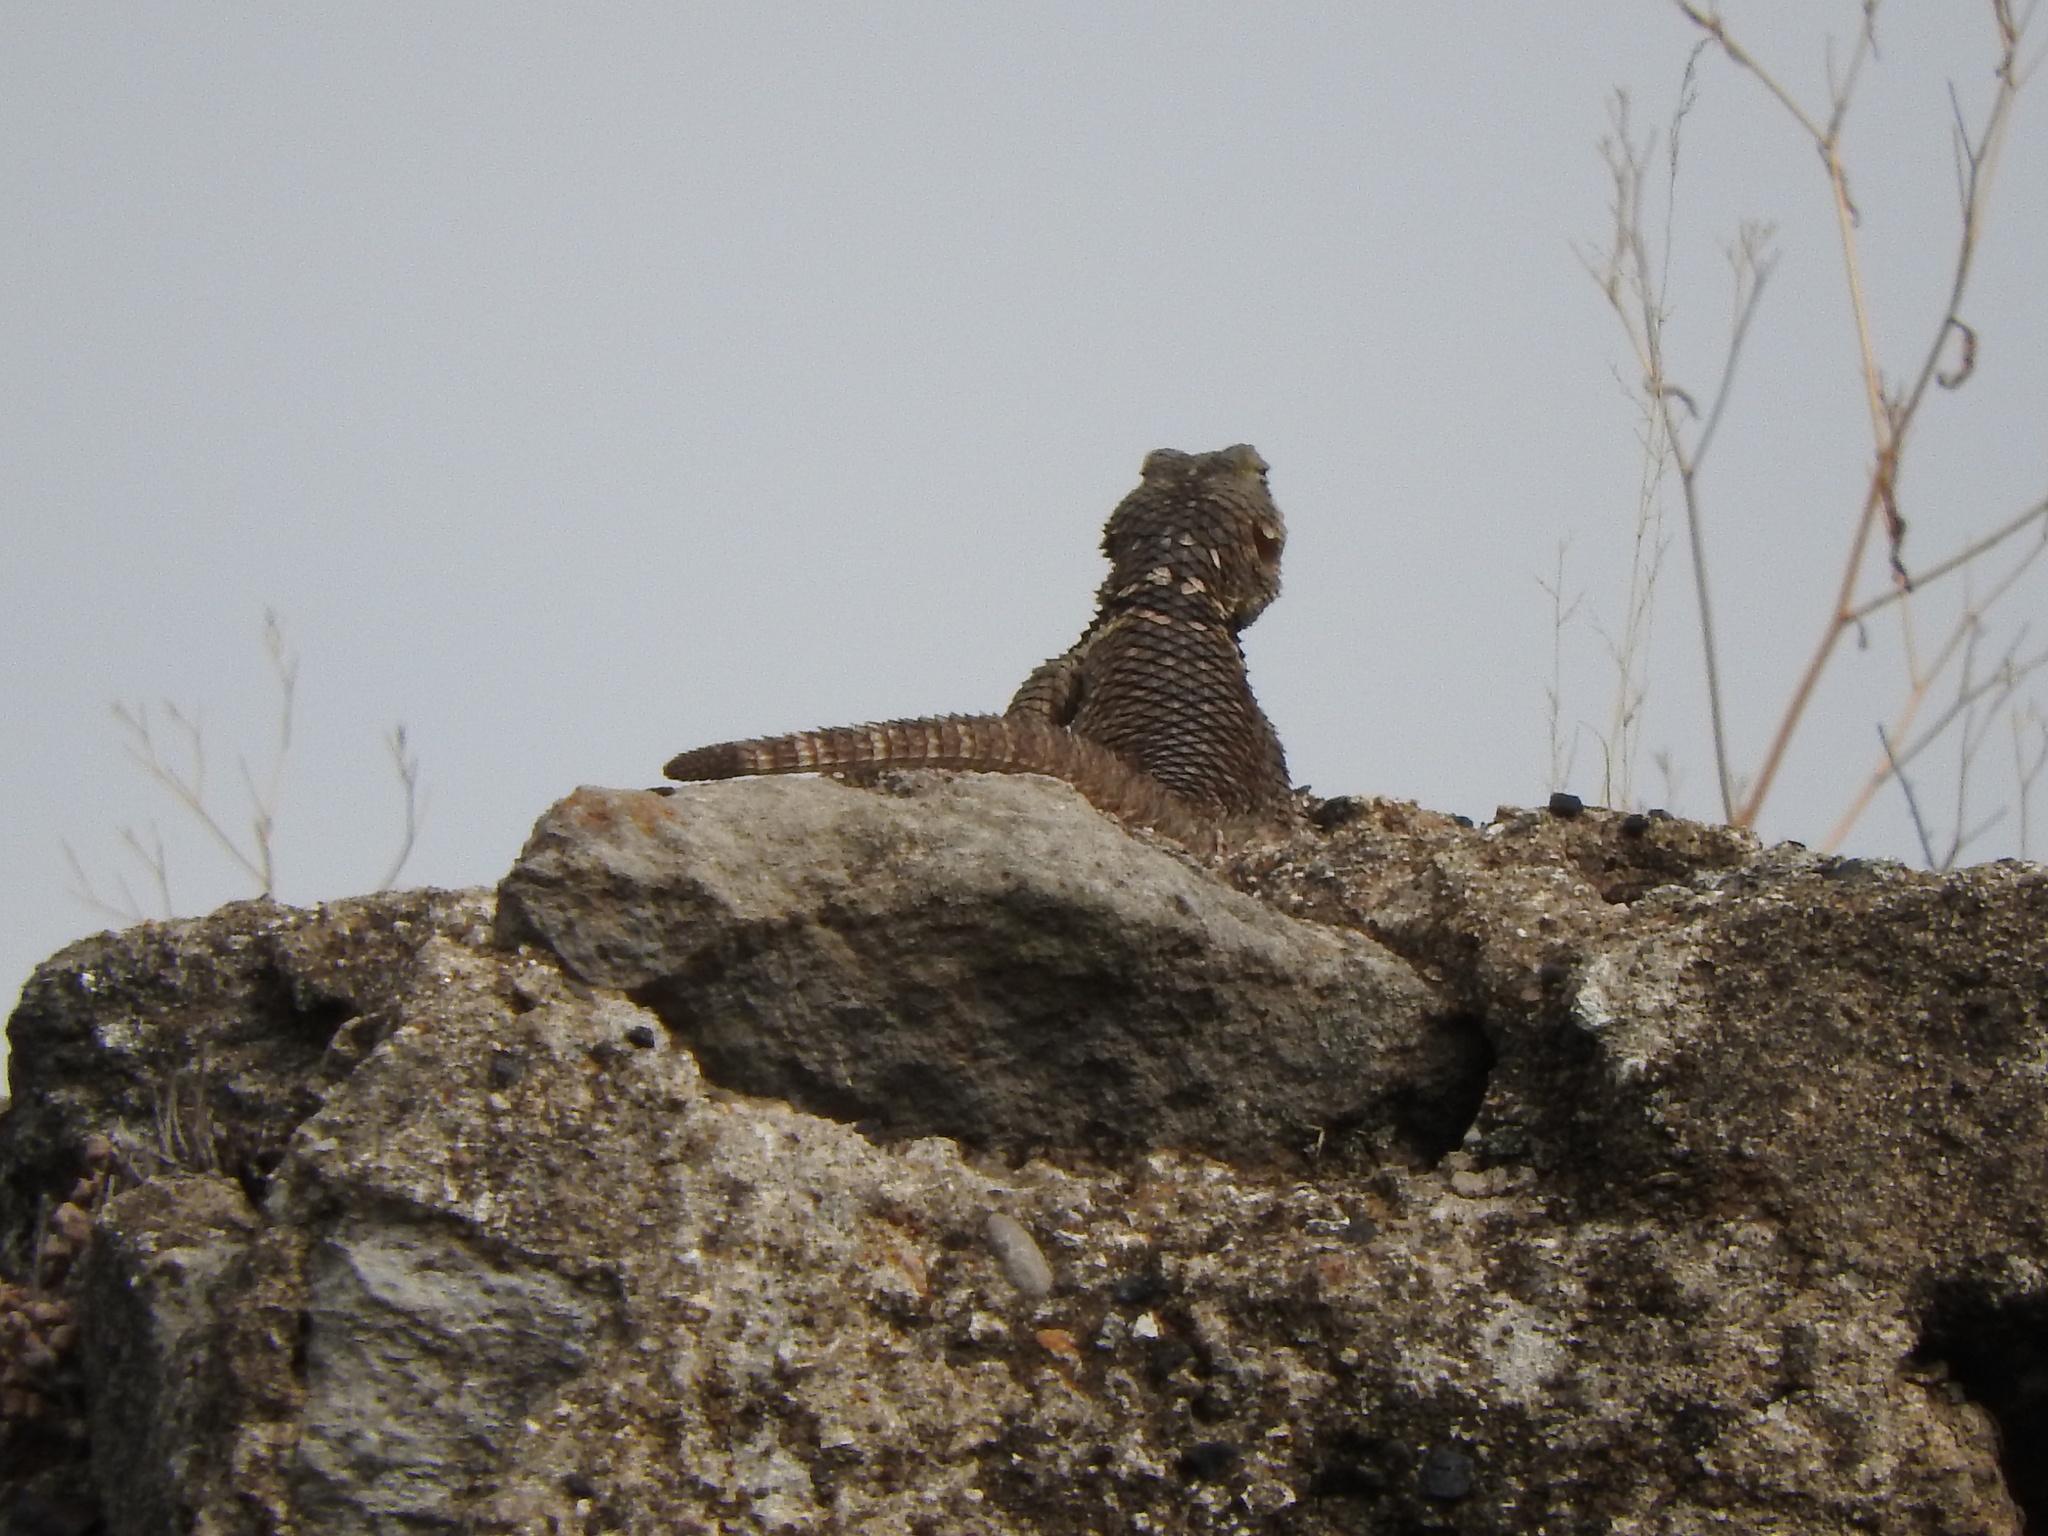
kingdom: Animalia
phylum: Chordata
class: Squamata
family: Phrynosomatidae
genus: Sceloporus
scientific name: Sceloporus torquatus
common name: Central plateau torquate lizard [melanogaster]
